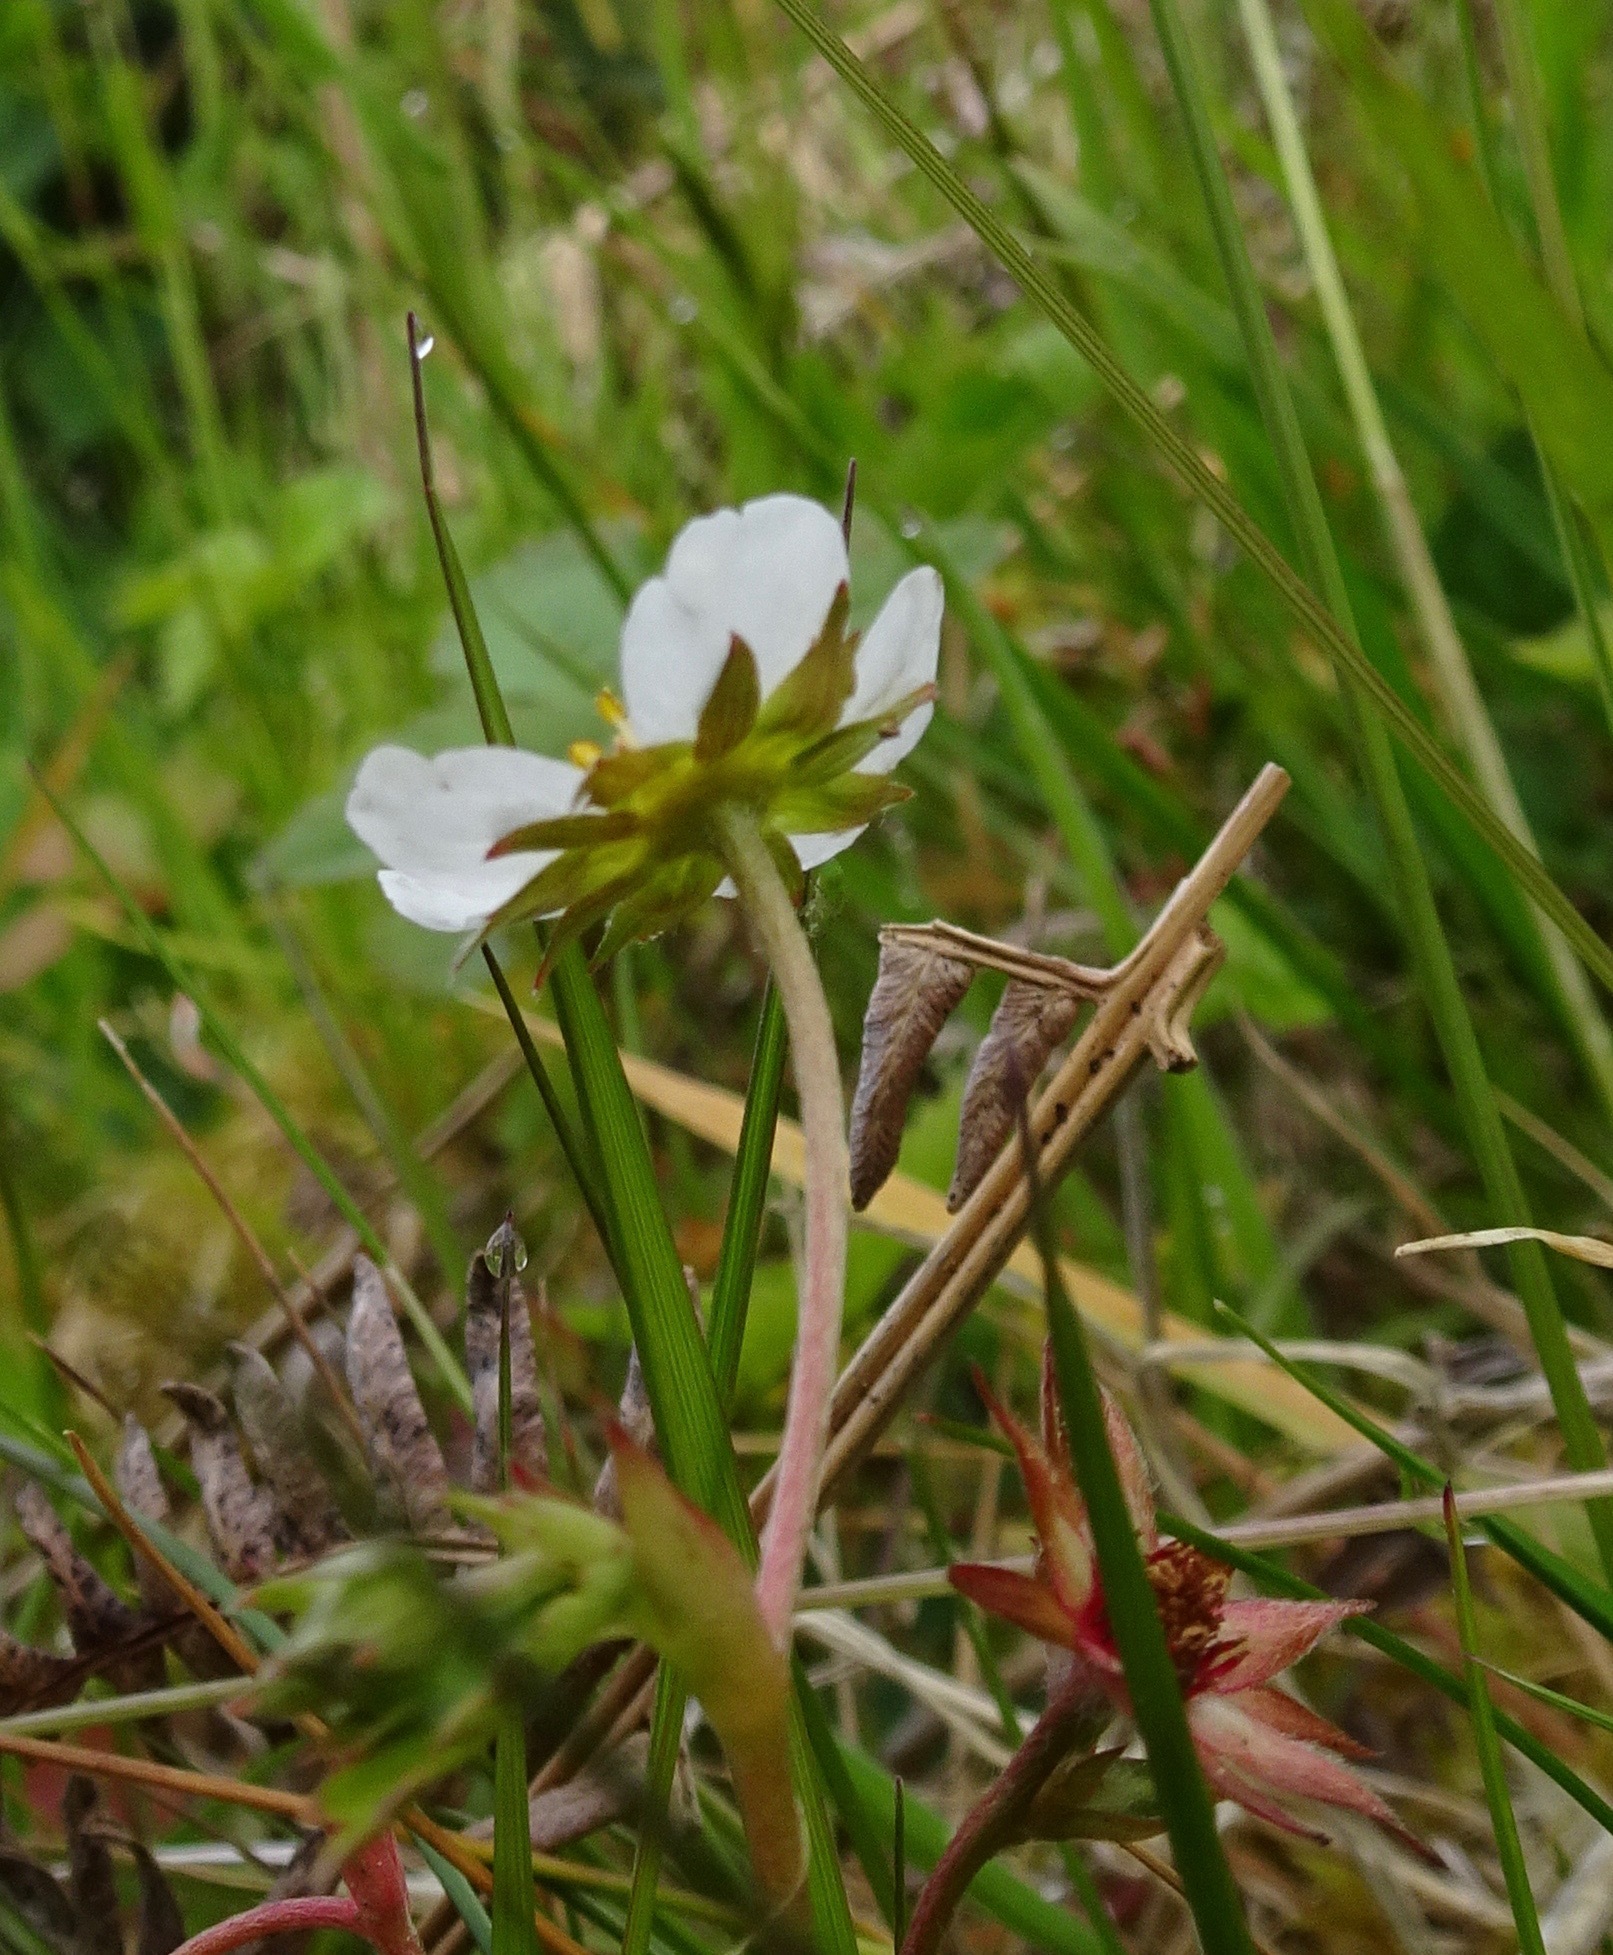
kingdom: Plantae
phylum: Tracheophyta
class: Magnoliopsida
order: Rosales
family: Rosaceae
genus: Fragaria
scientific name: Fragaria vesca
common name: Wild strawberry
